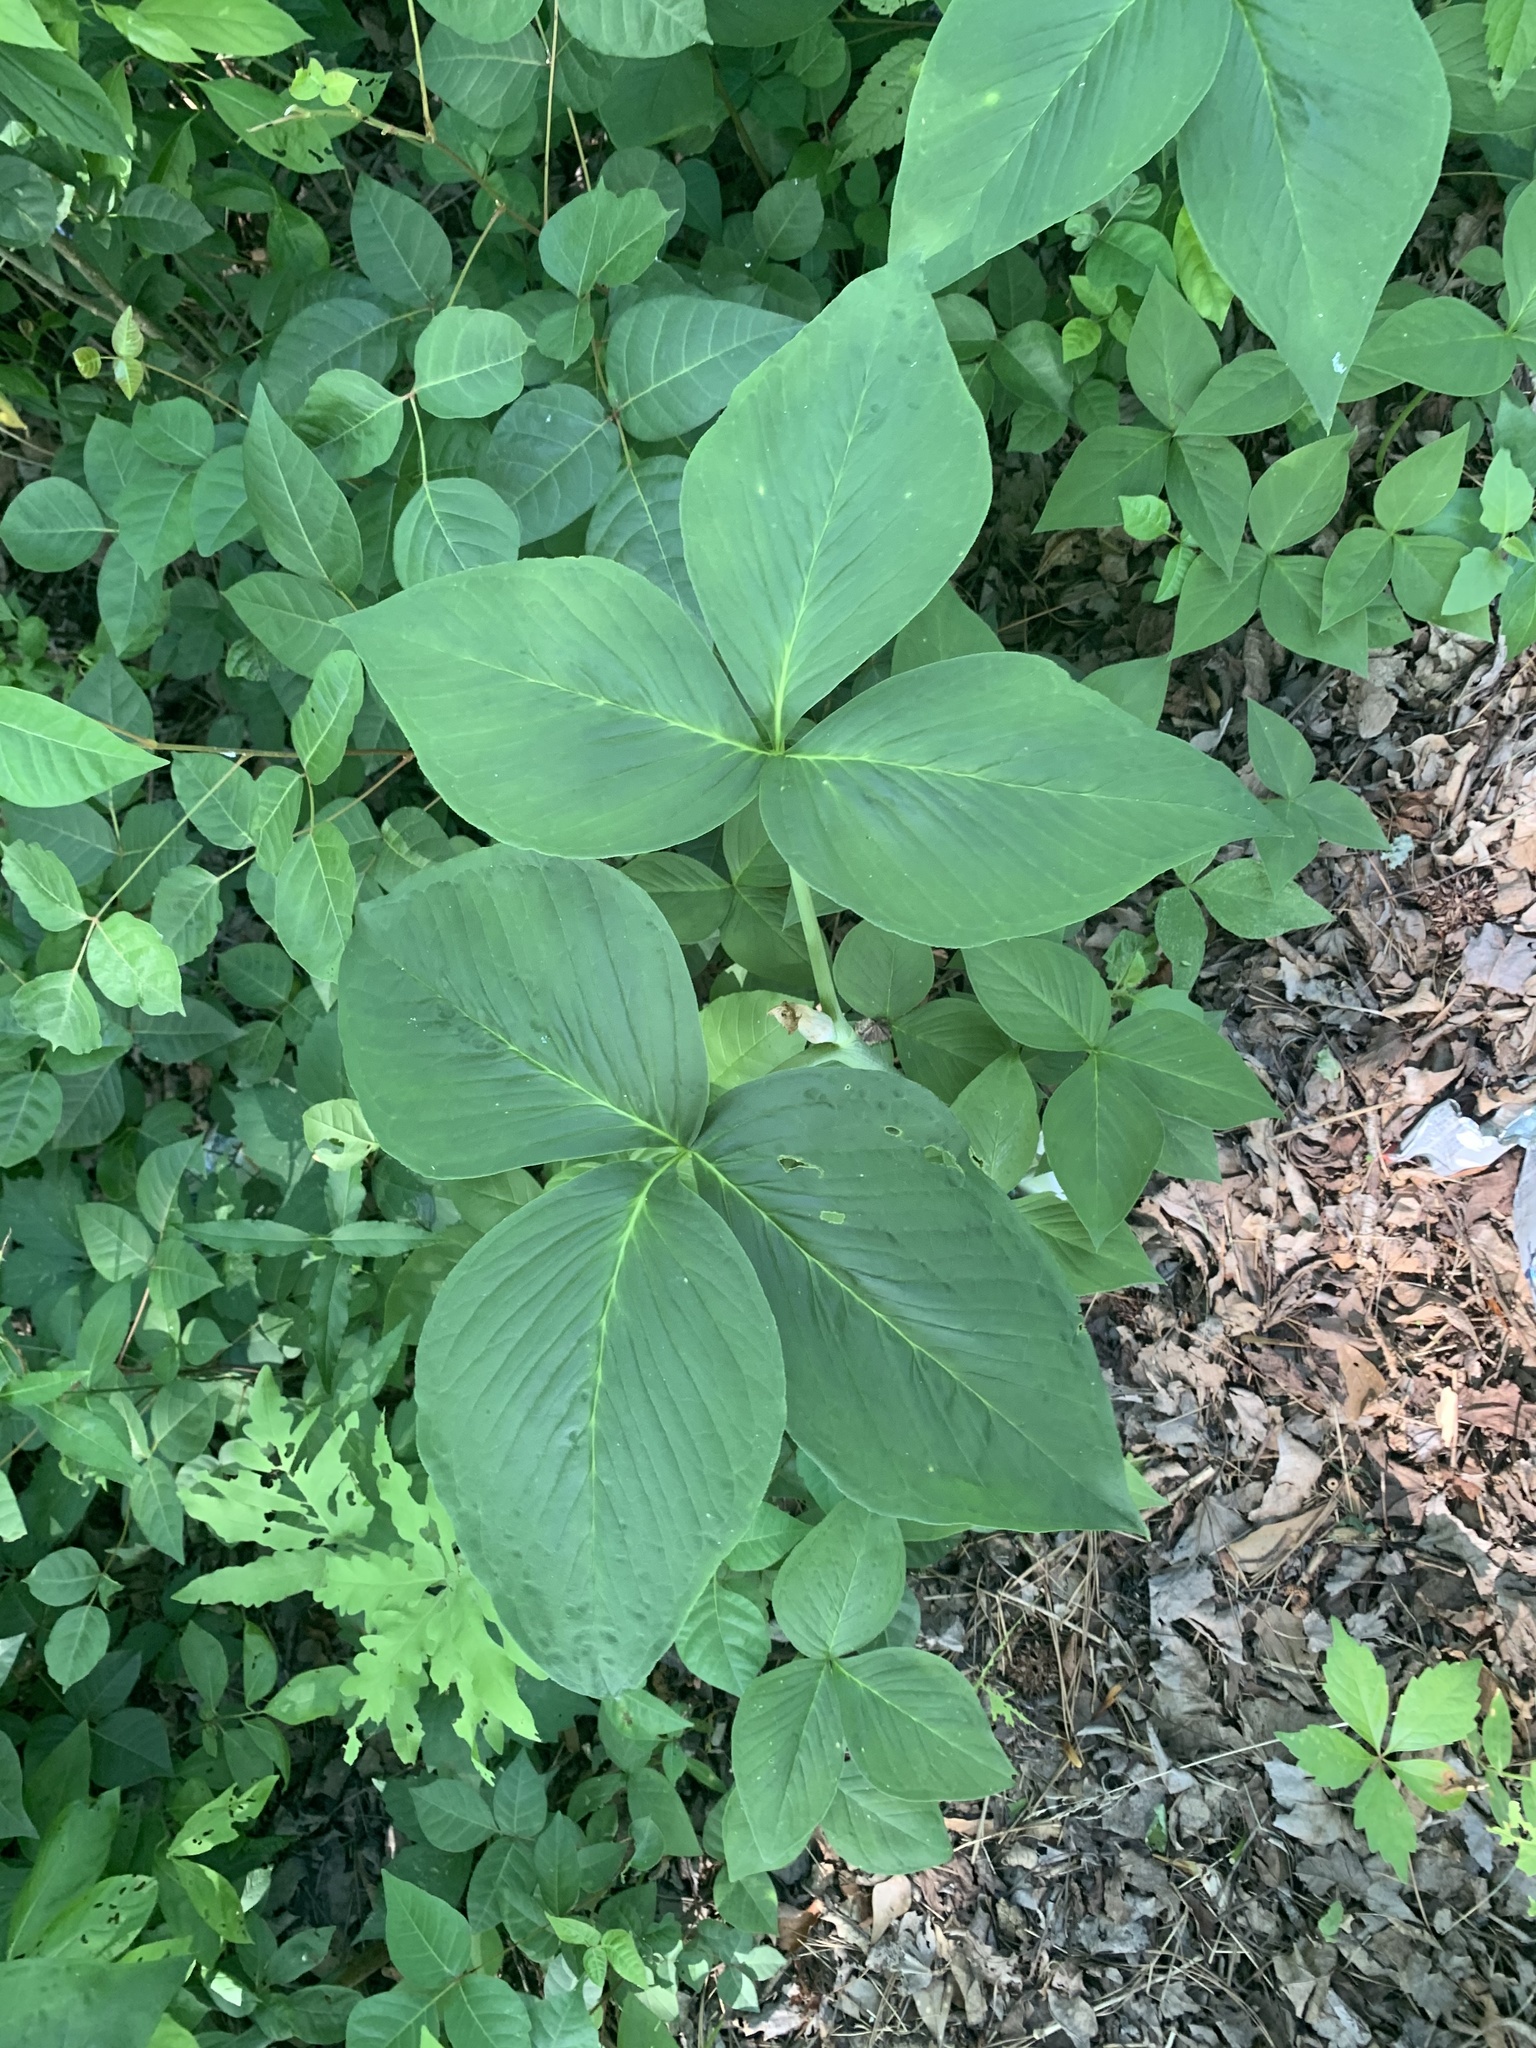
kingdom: Plantae
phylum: Tracheophyta
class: Liliopsida
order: Alismatales
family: Araceae
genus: Arisaema
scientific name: Arisaema triphyllum
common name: Jack-in-the-pulpit
